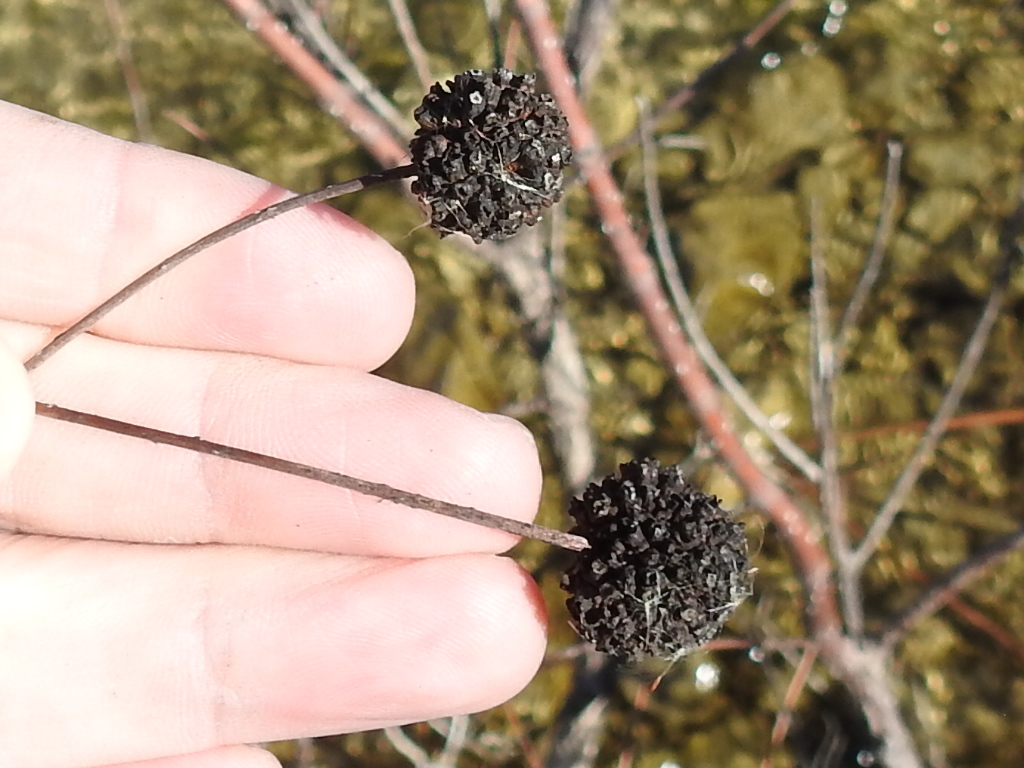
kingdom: Plantae
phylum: Tracheophyta
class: Magnoliopsida
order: Gentianales
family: Rubiaceae
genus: Cephalanthus
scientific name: Cephalanthus occidentalis
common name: Button-willow
